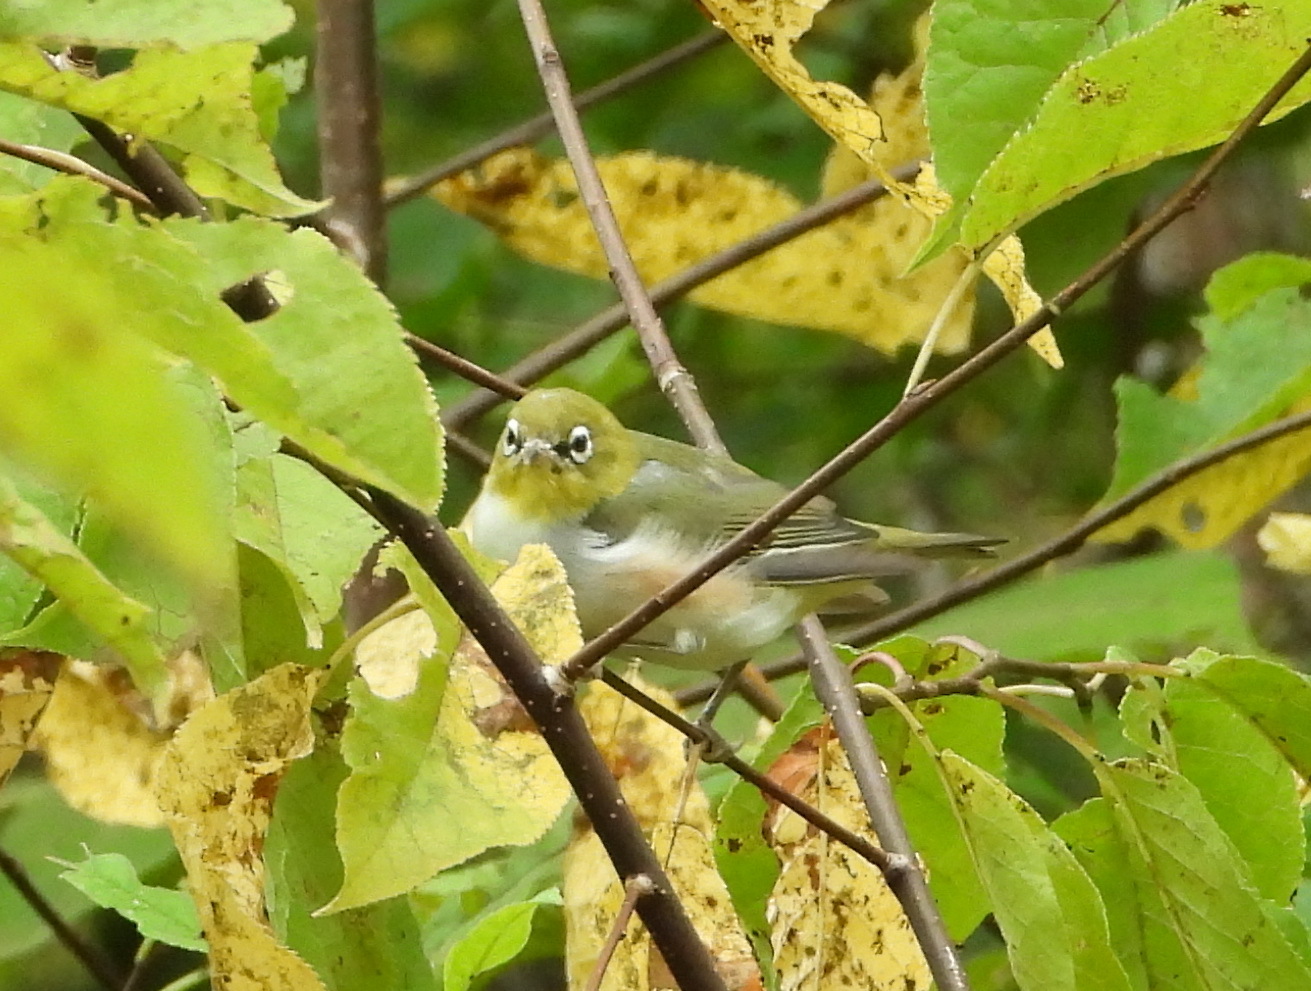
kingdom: Animalia
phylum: Chordata
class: Aves
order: Passeriformes
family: Zosteropidae
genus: Zosterops
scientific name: Zosterops erythropleurus
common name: Chestnut-flanked white-eye
